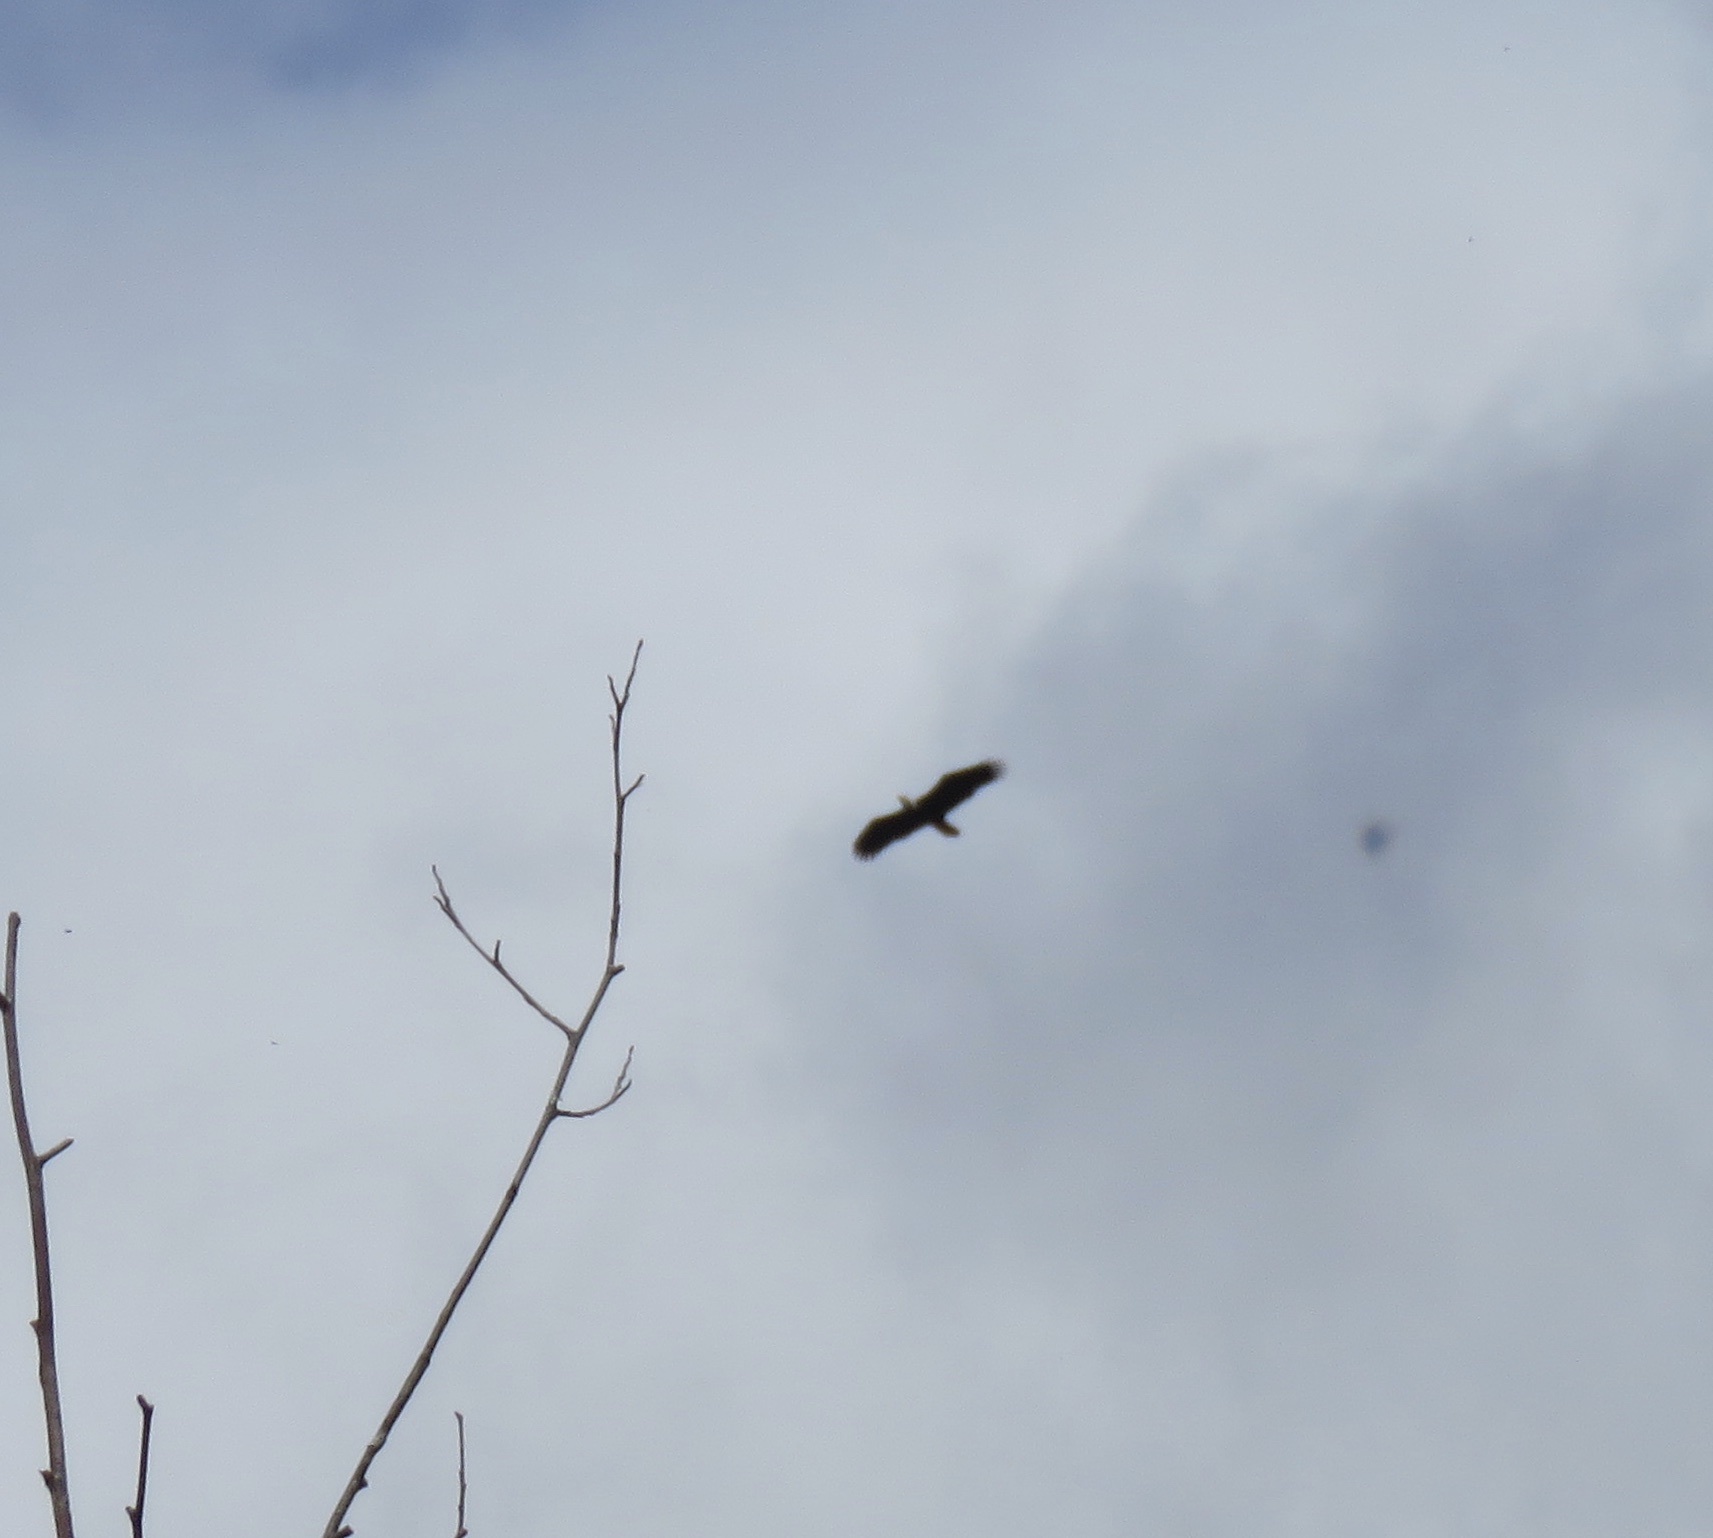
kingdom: Animalia
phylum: Chordata
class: Aves
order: Accipitriformes
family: Accipitridae
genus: Haliaeetus
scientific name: Haliaeetus leucocephalus
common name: Bald eagle
